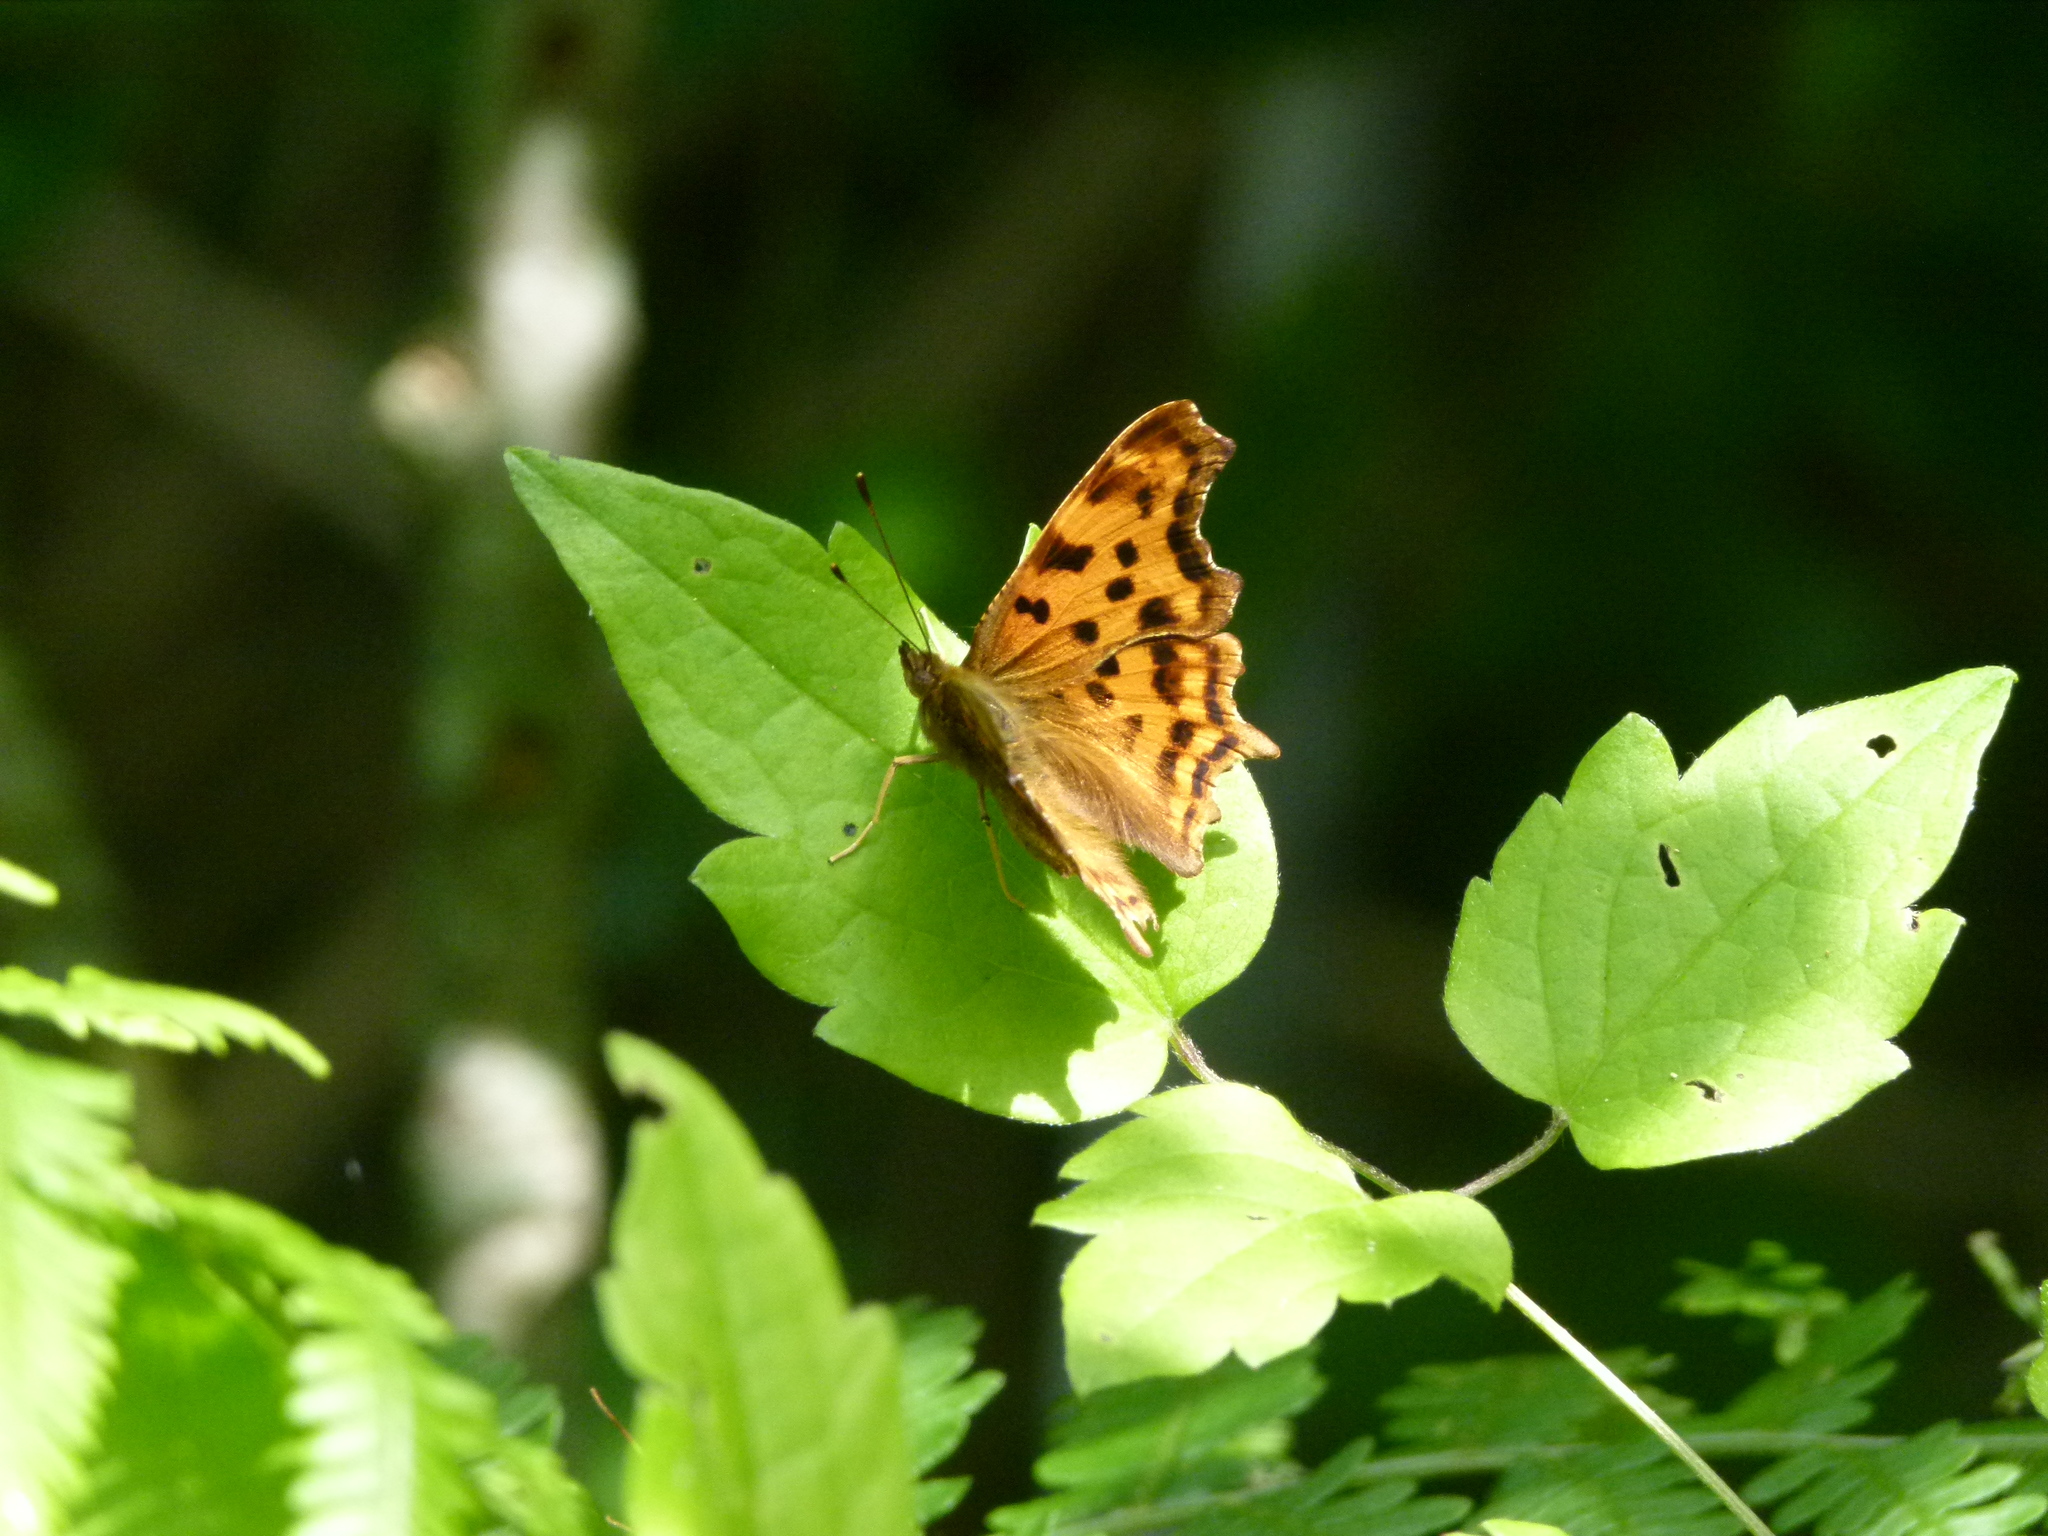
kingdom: Animalia
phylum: Arthropoda
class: Insecta
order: Lepidoptera
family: Nymphalidae
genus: Polygonia
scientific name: Polygonia c-album
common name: Comma
